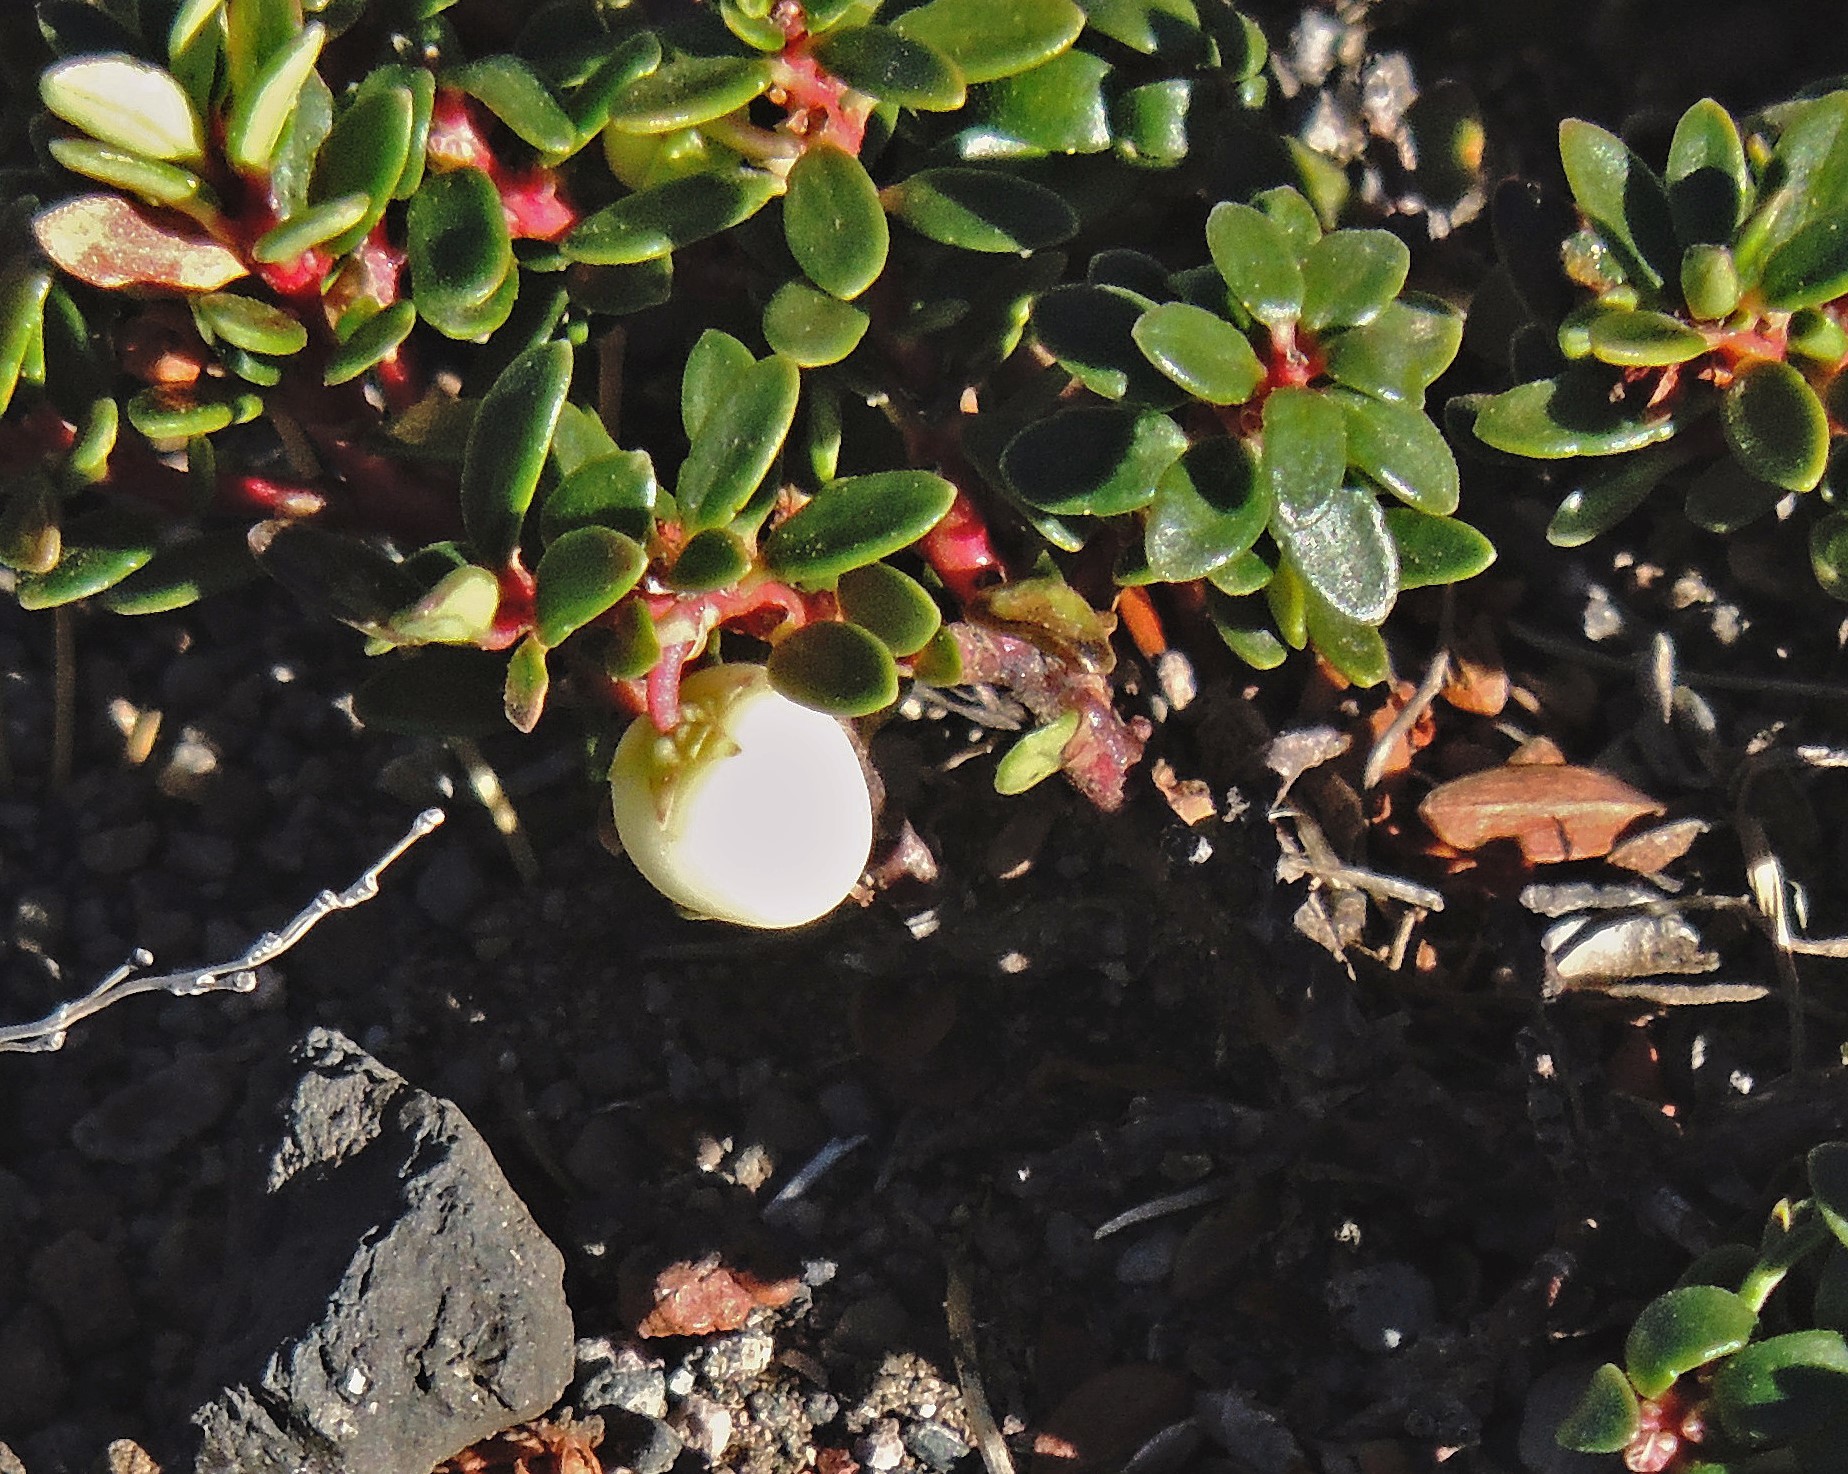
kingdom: Plantae
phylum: Tracheophyta
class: Magnoliopsida
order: Ericales
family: Ericaceae
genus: Gaultheria
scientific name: Gaultheria pumila
